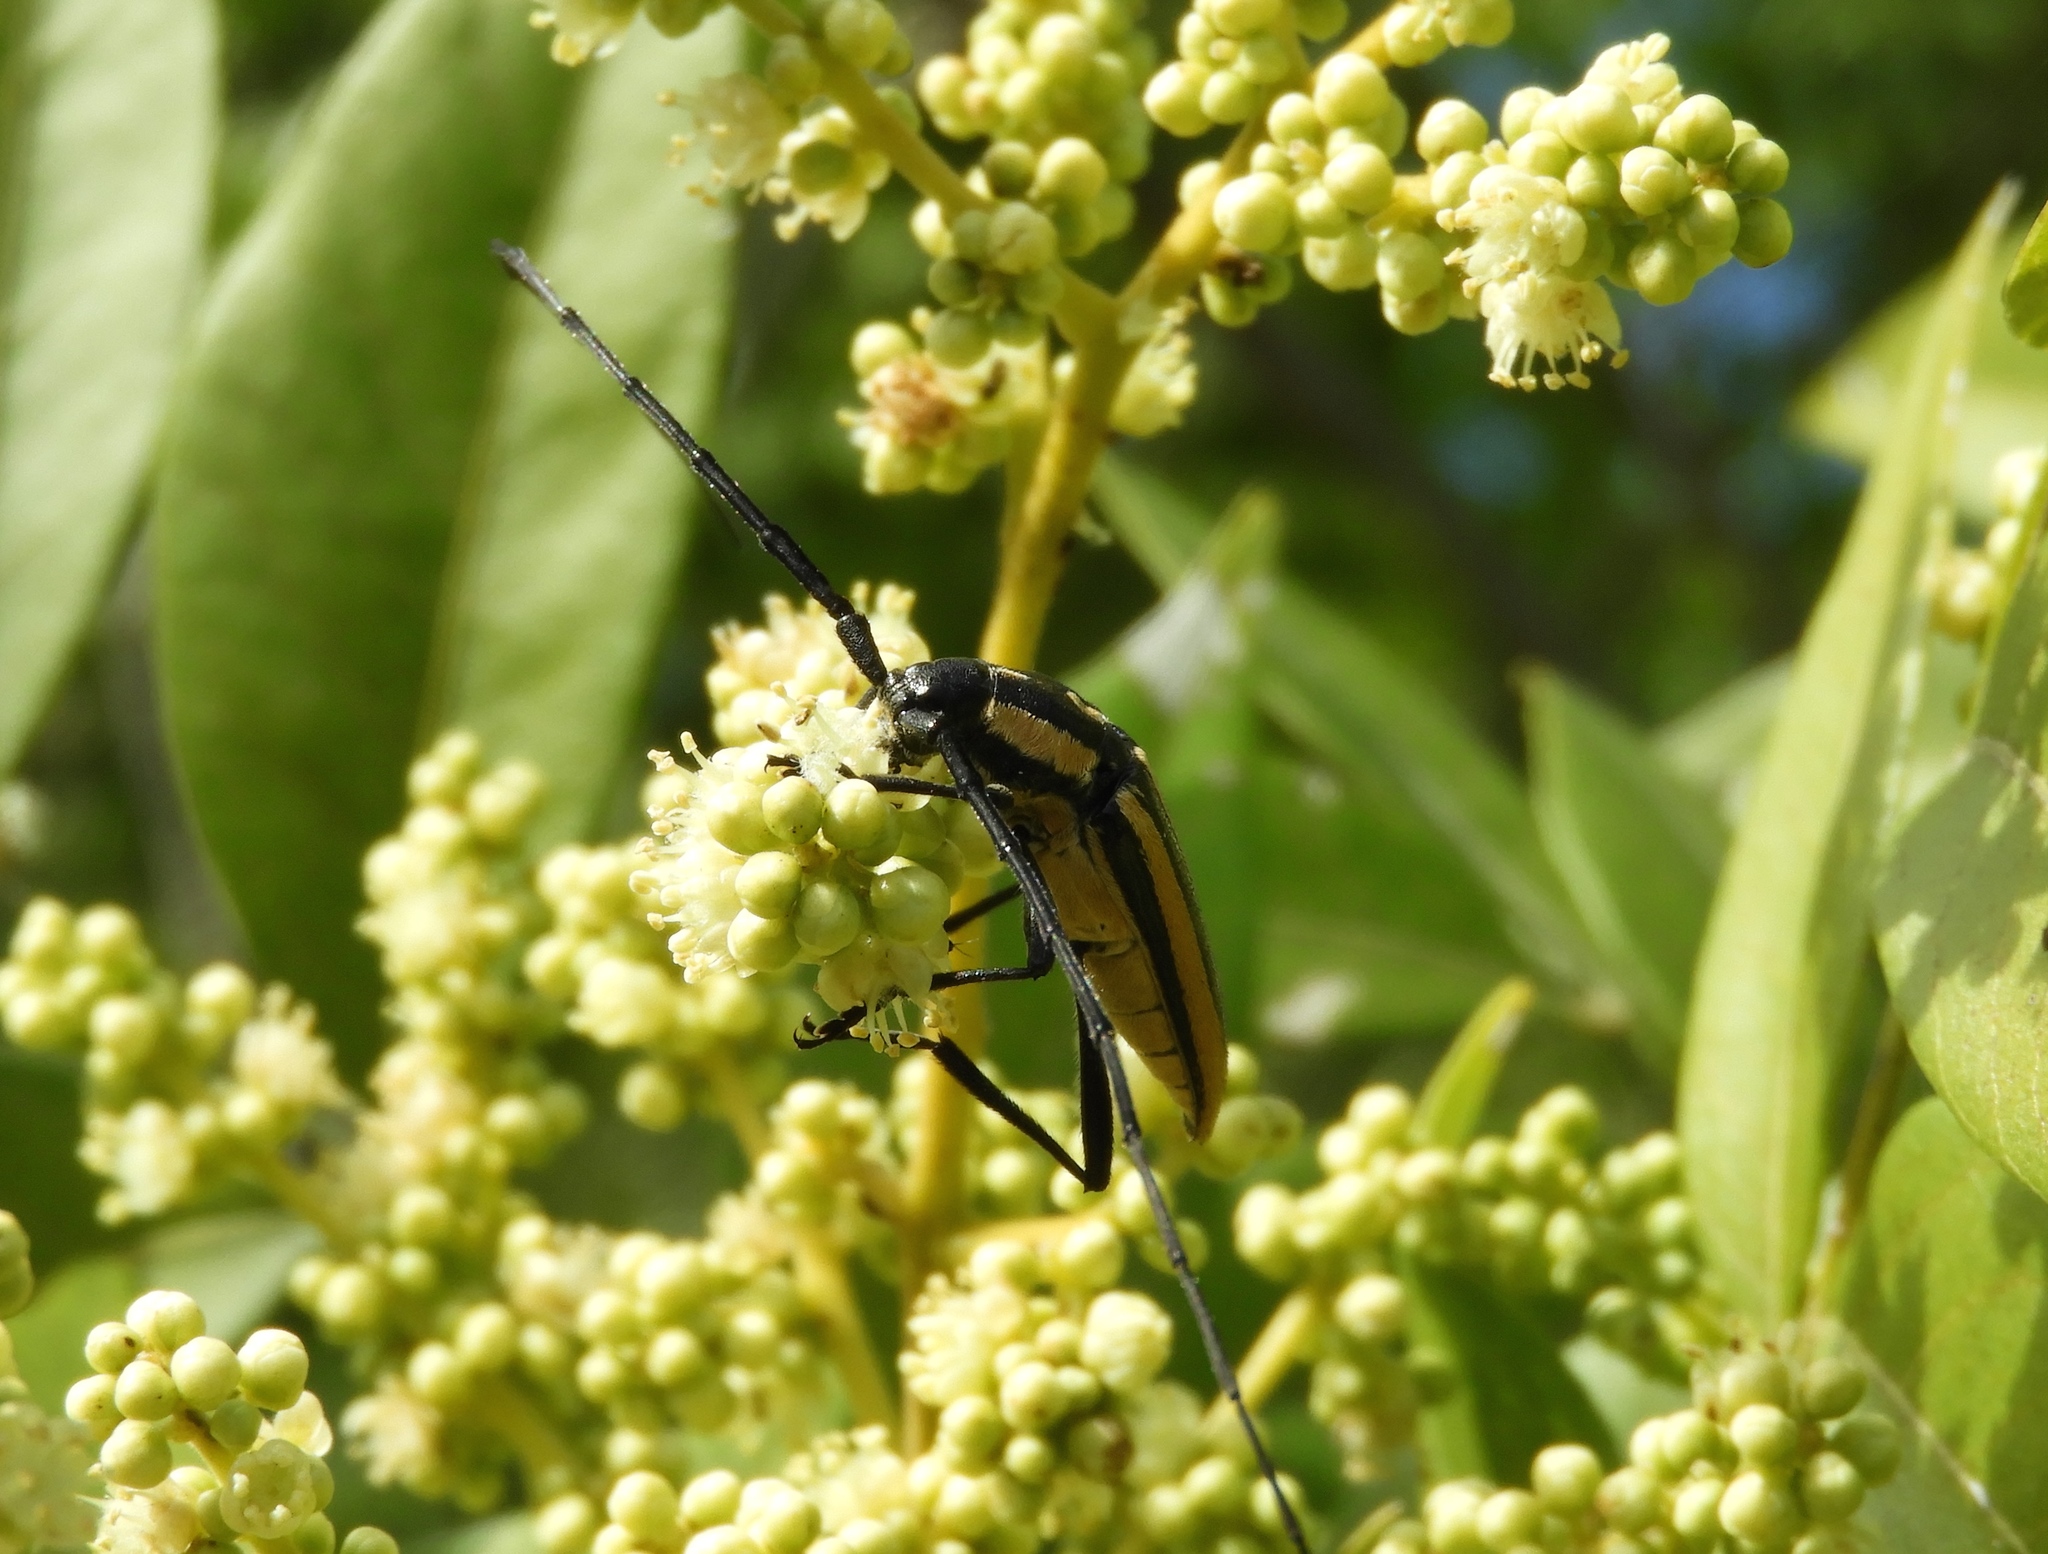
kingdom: Animalia
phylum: Arthropoda
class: Insecta
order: Coleoptera
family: Cerambycidae
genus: Sphaenothecus
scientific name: Sphaenothecus trilineatus
